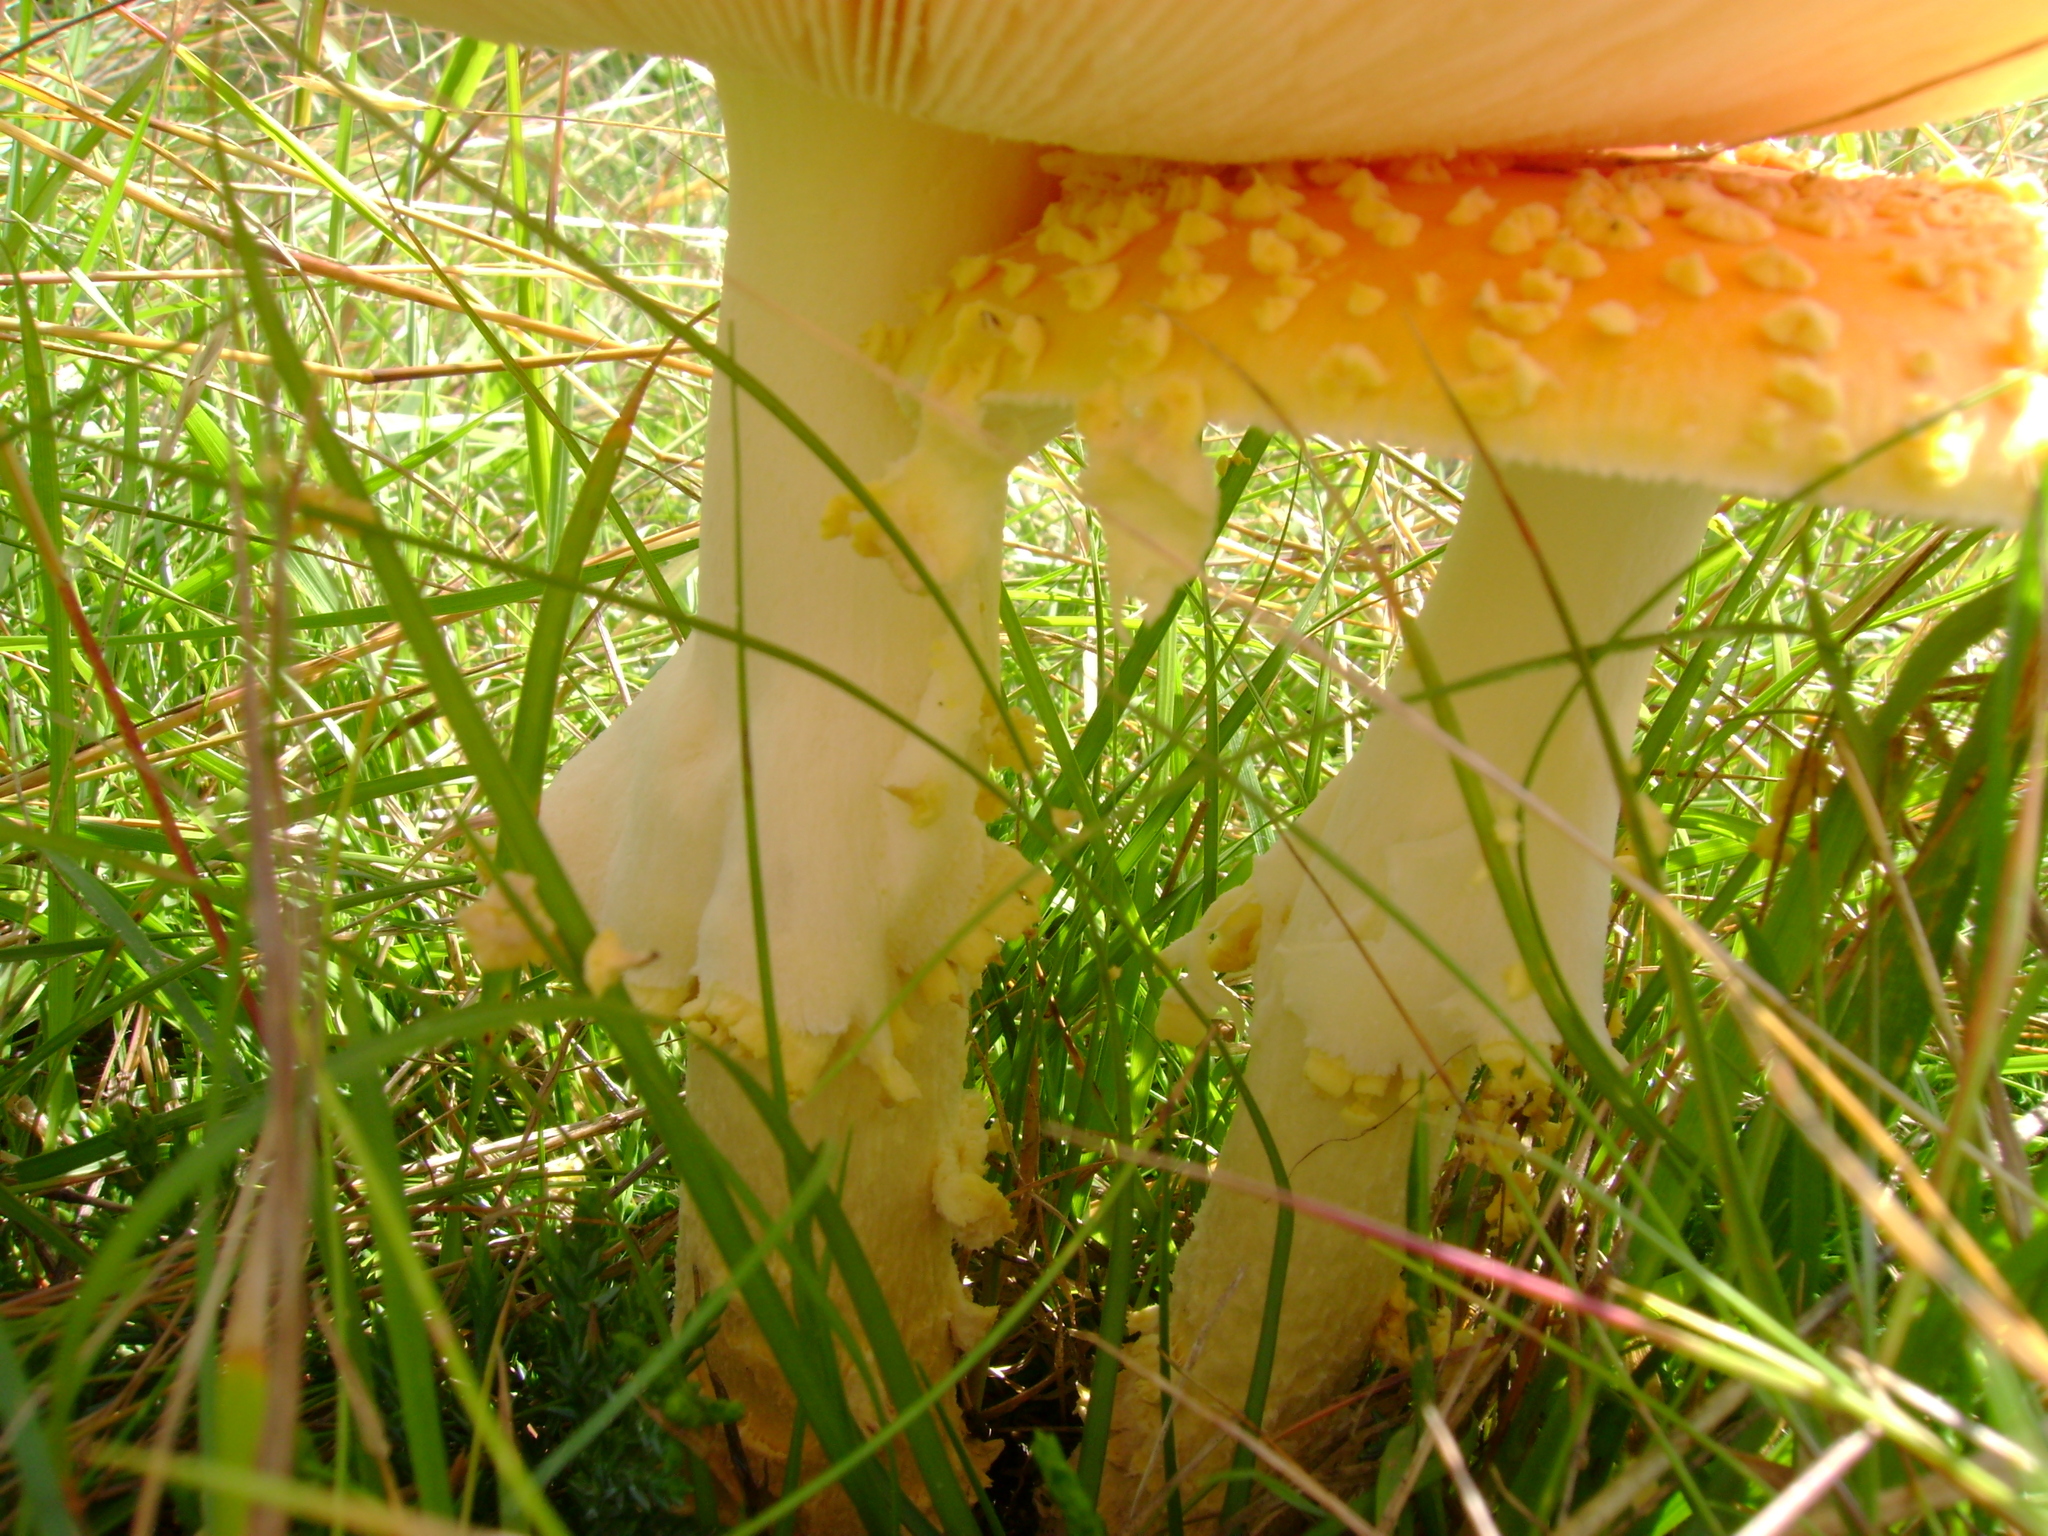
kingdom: Fungi
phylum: Basidiomycota
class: Agaricomycetes
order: Agaricales
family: Amanitaceae
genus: Amanita
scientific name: Amanita muscaria
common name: Fly agaric
